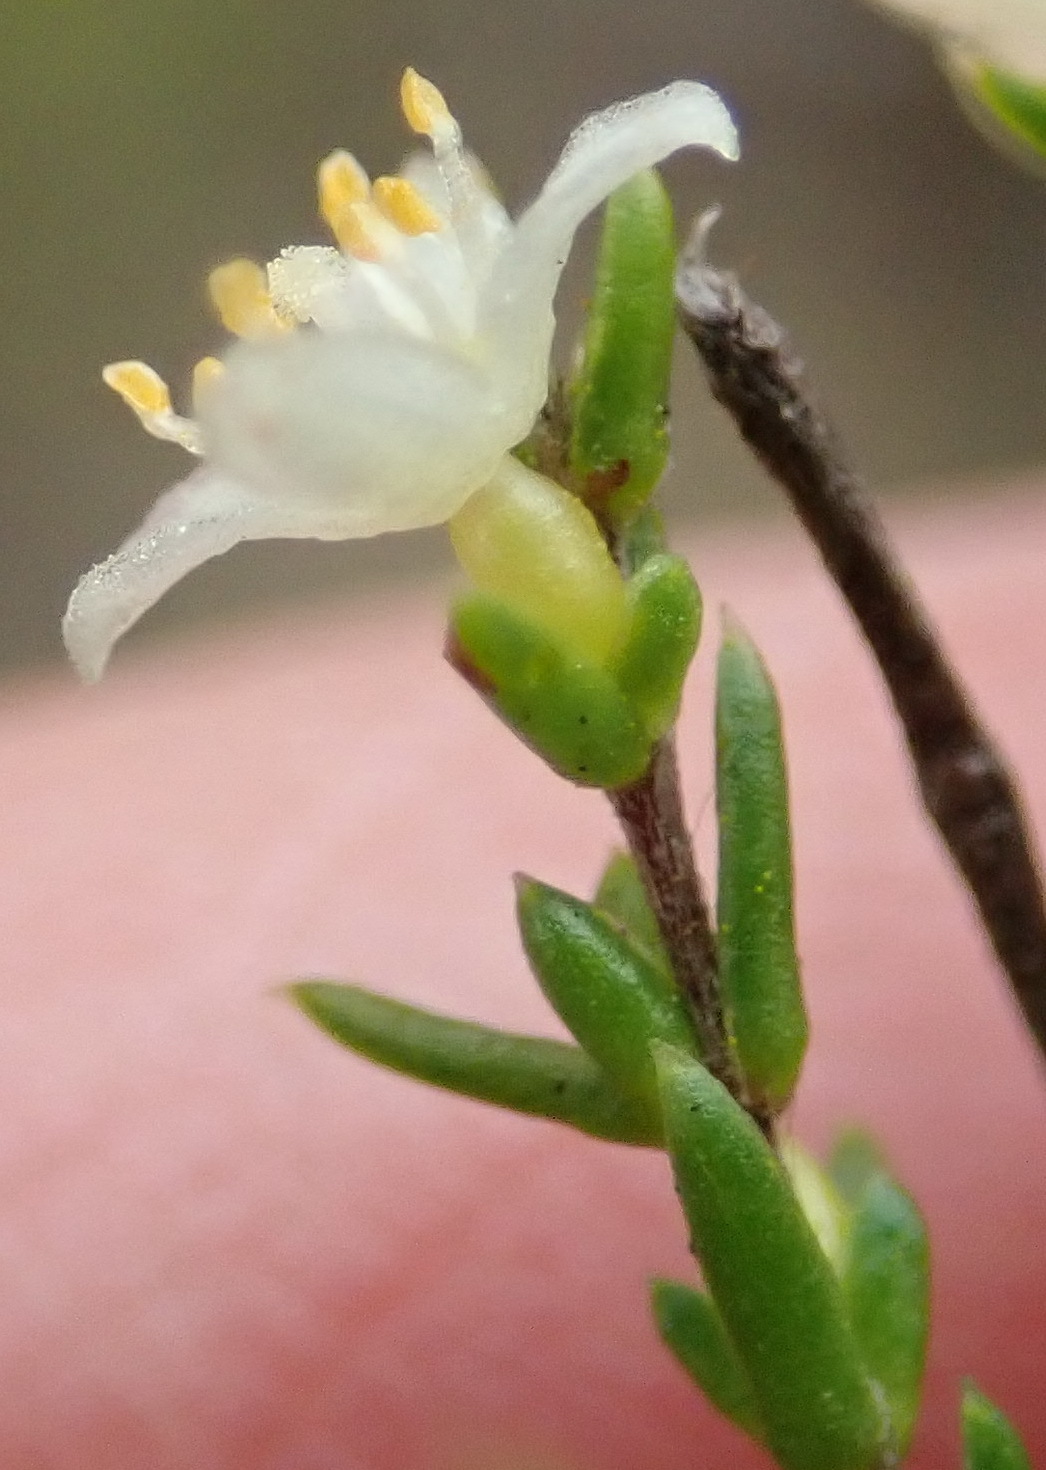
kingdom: Plantae
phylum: Tracheophyta
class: Magnoliopsida
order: Malvales
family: Thymelaeaceae
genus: Lachnaea
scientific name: Lachnaea axillaris
